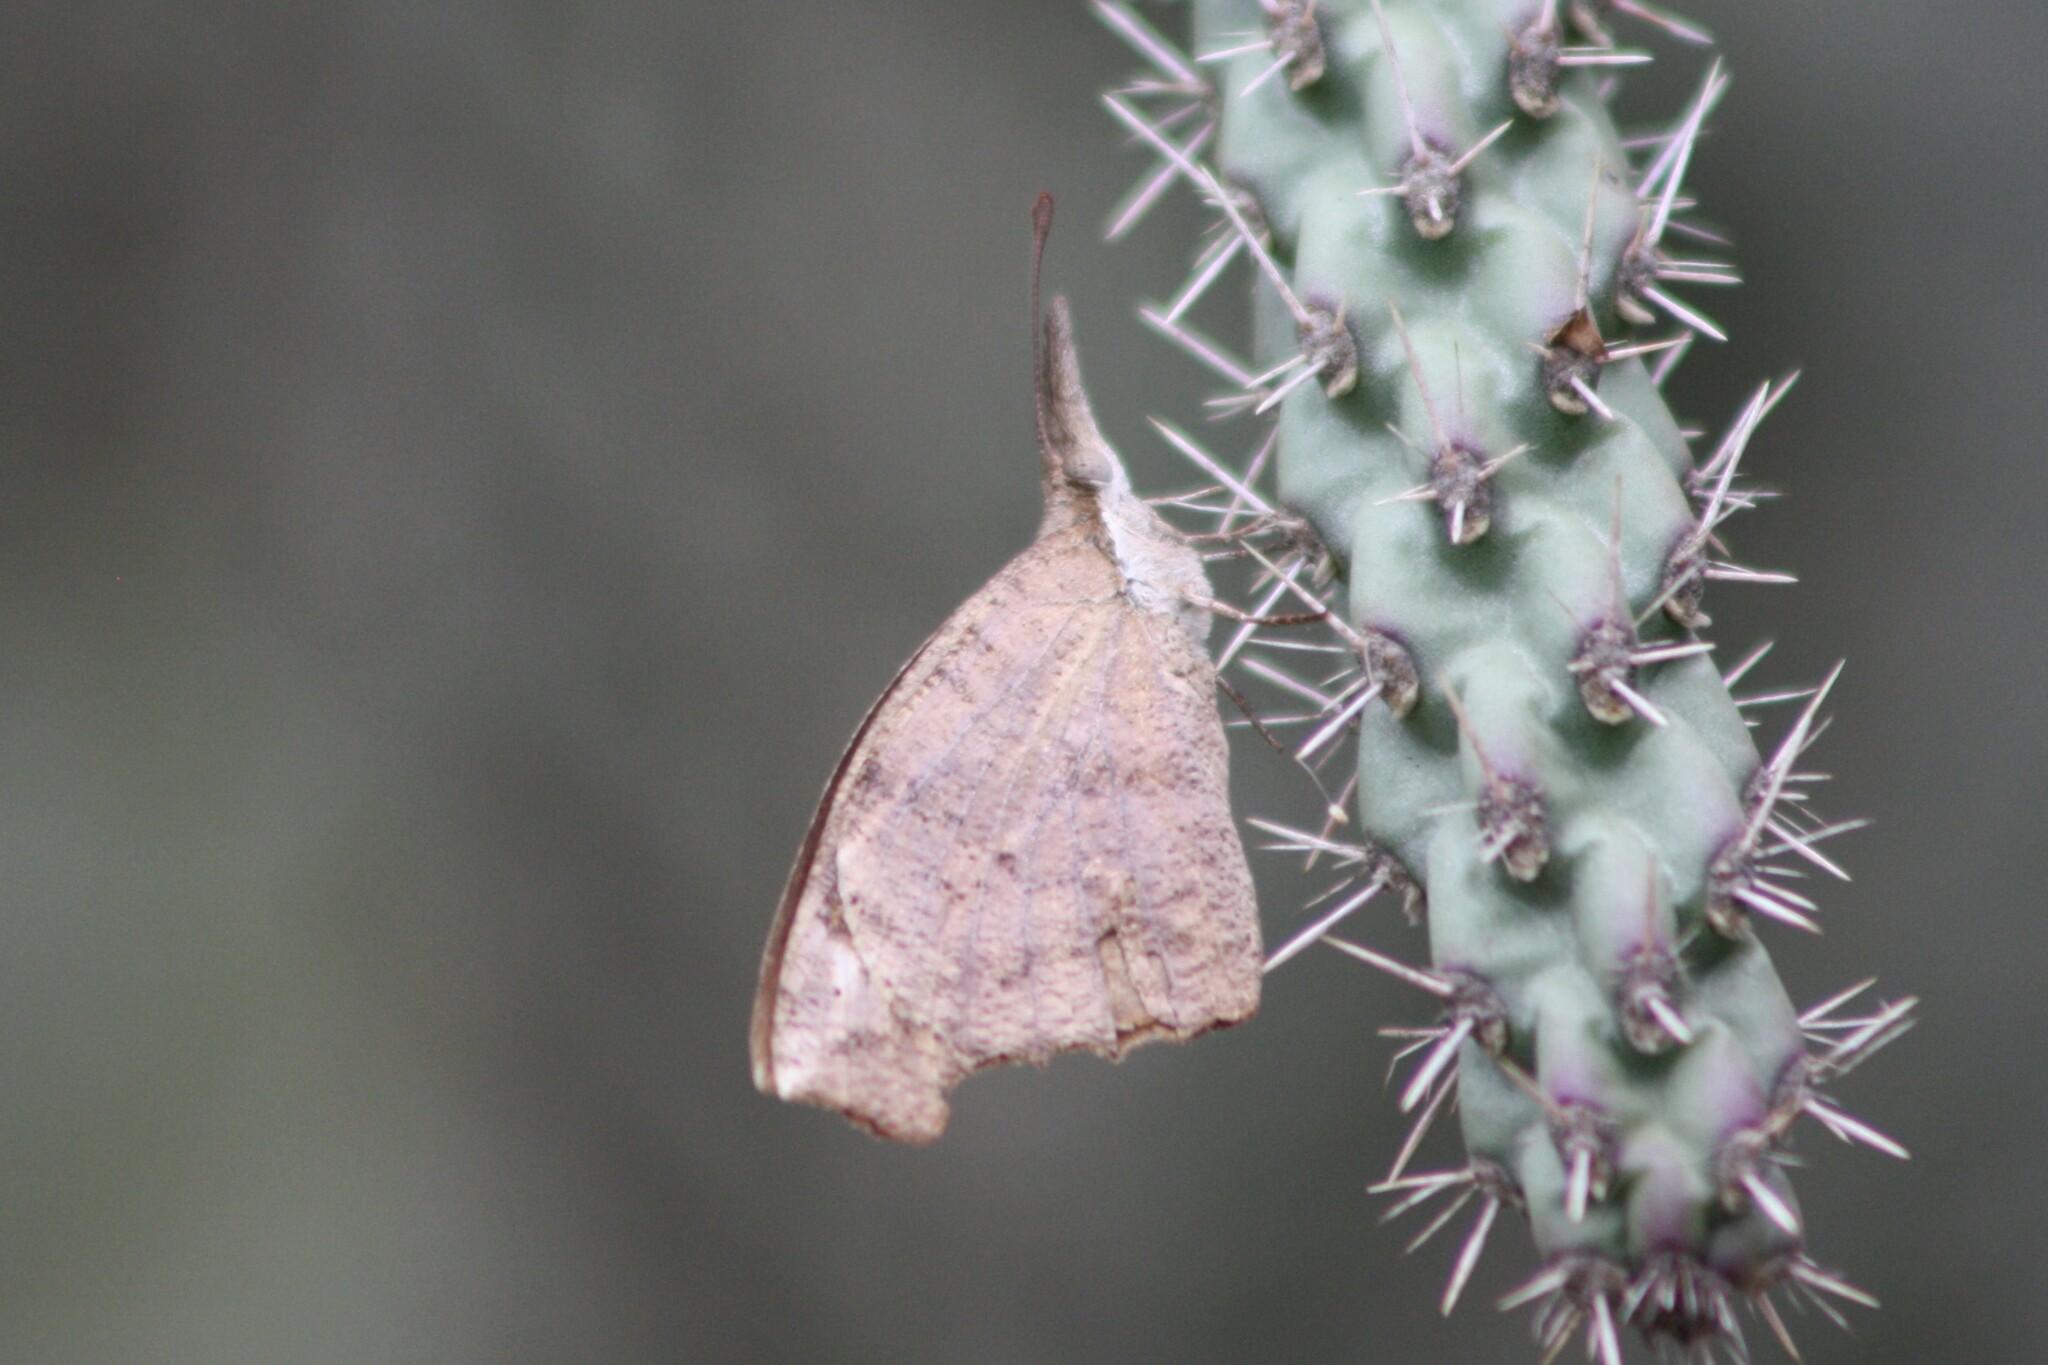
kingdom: Animalia
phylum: Arthropoda
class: Insecta
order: Lepidoptera
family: Nymphalidae
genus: Libytheana
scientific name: Libytheana carinenta
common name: American snout
